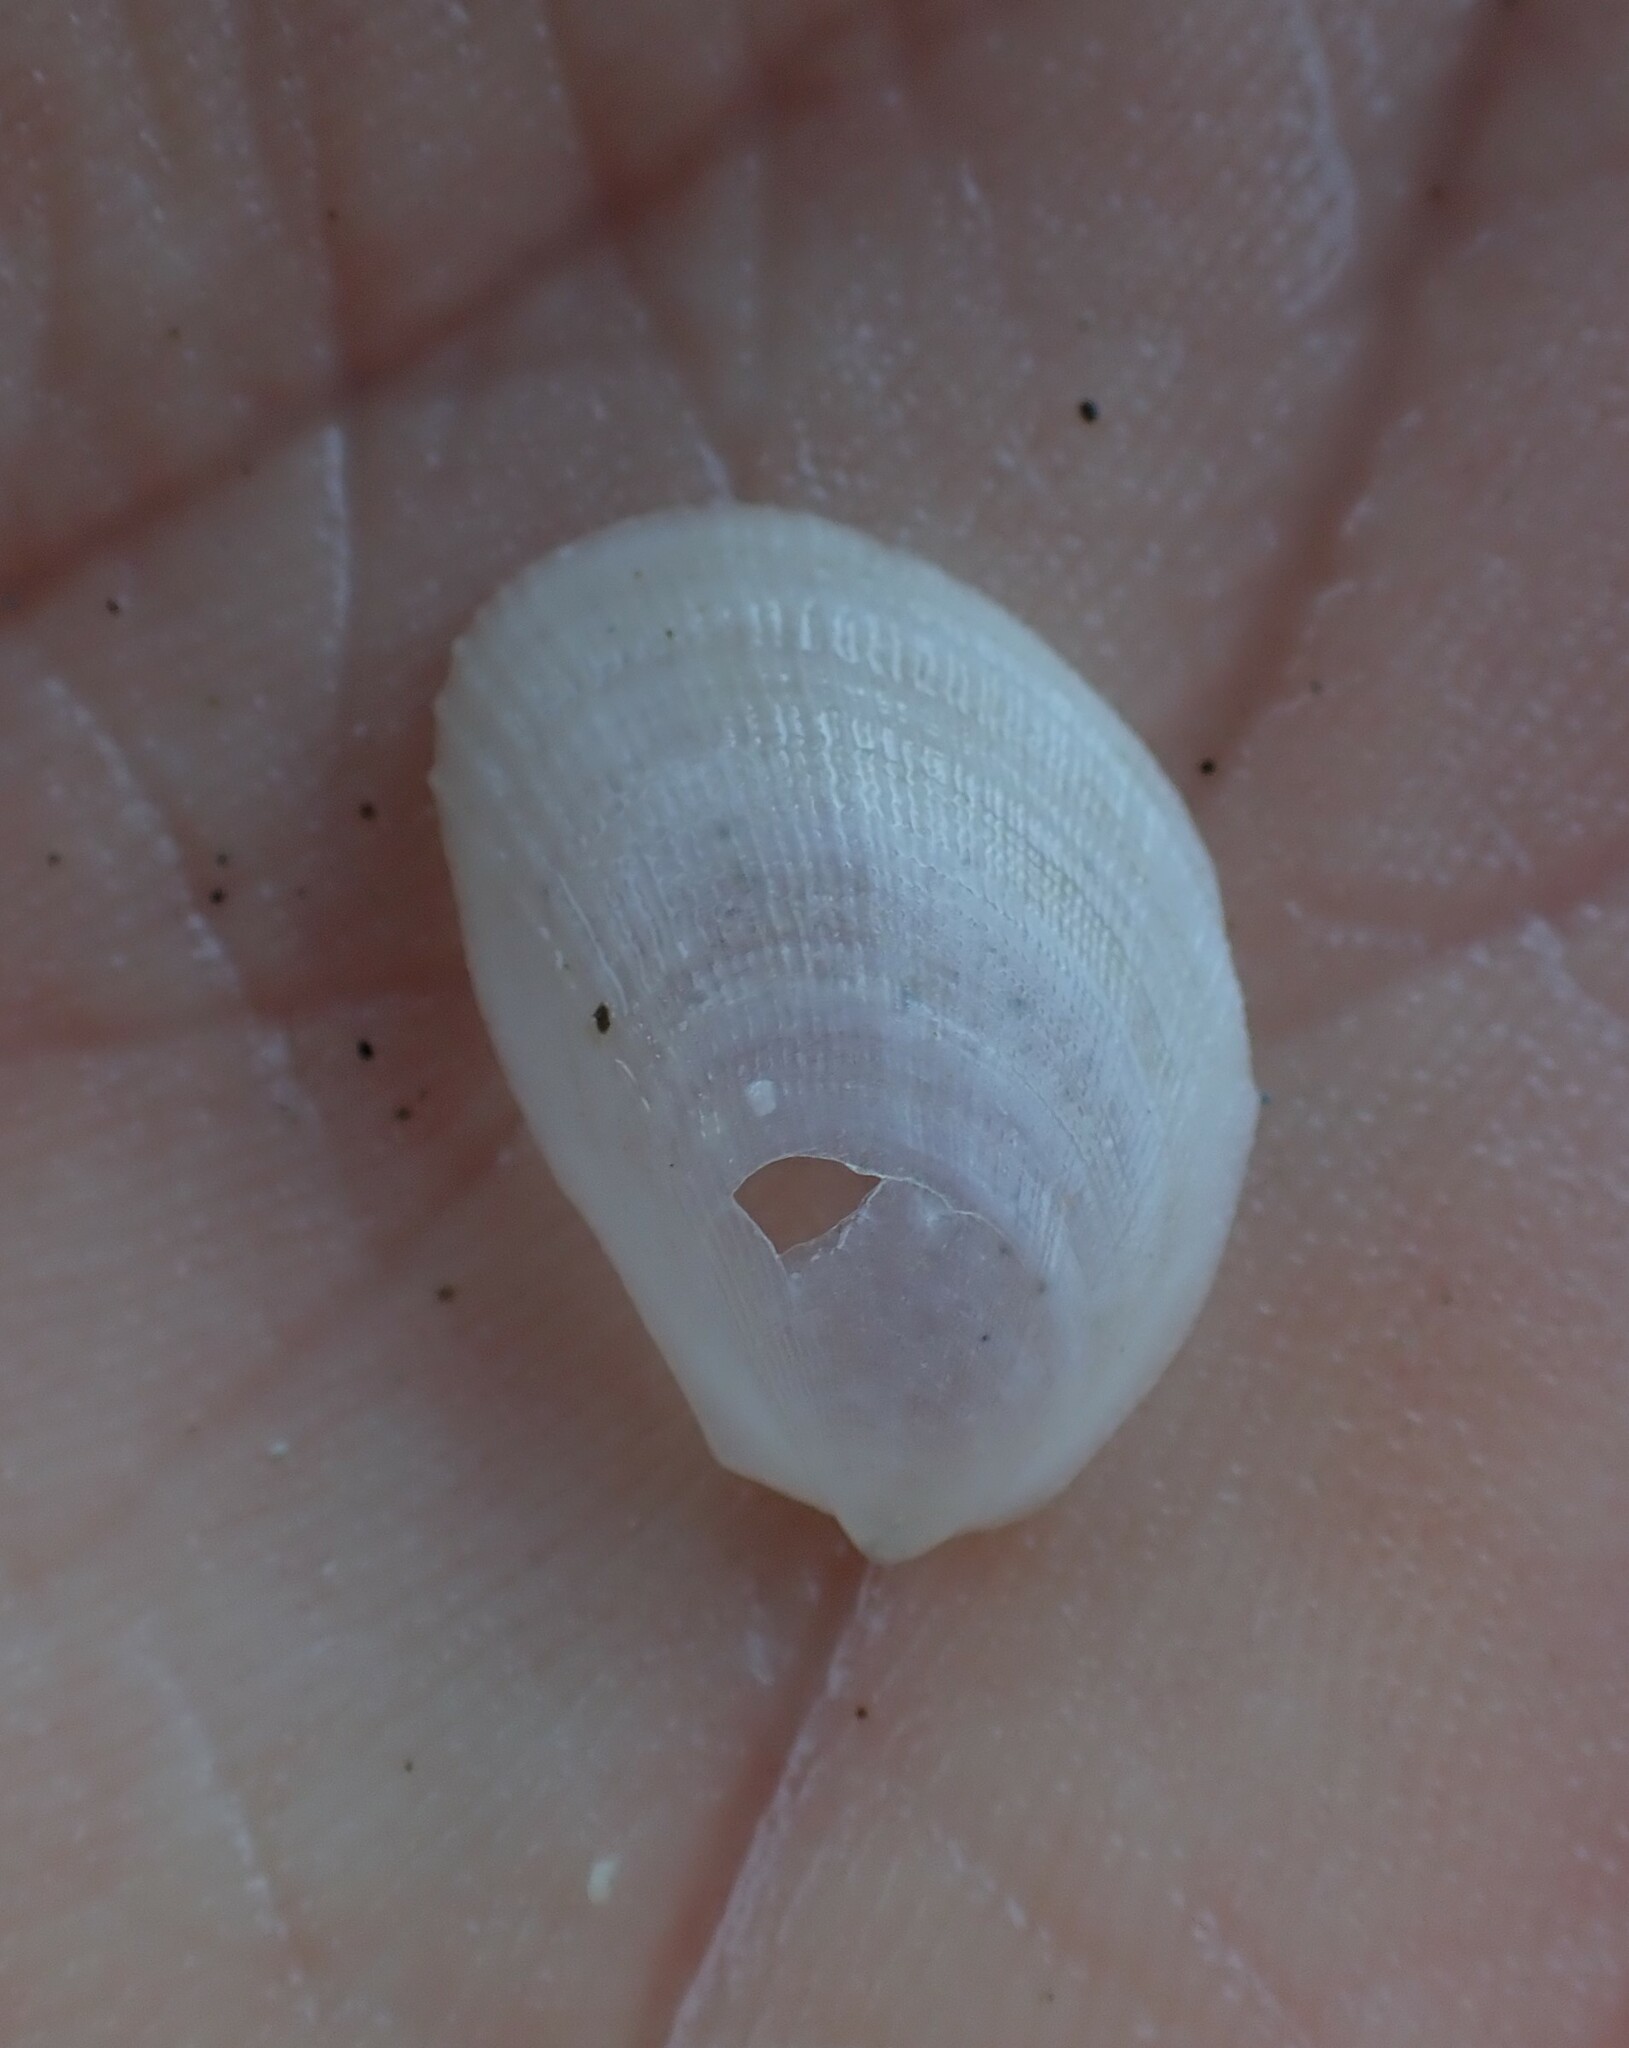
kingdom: Animalia
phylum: Mollusca
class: Bivalvia
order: Limida
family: Limidae
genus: Limaria
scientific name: Limaria orientalis
